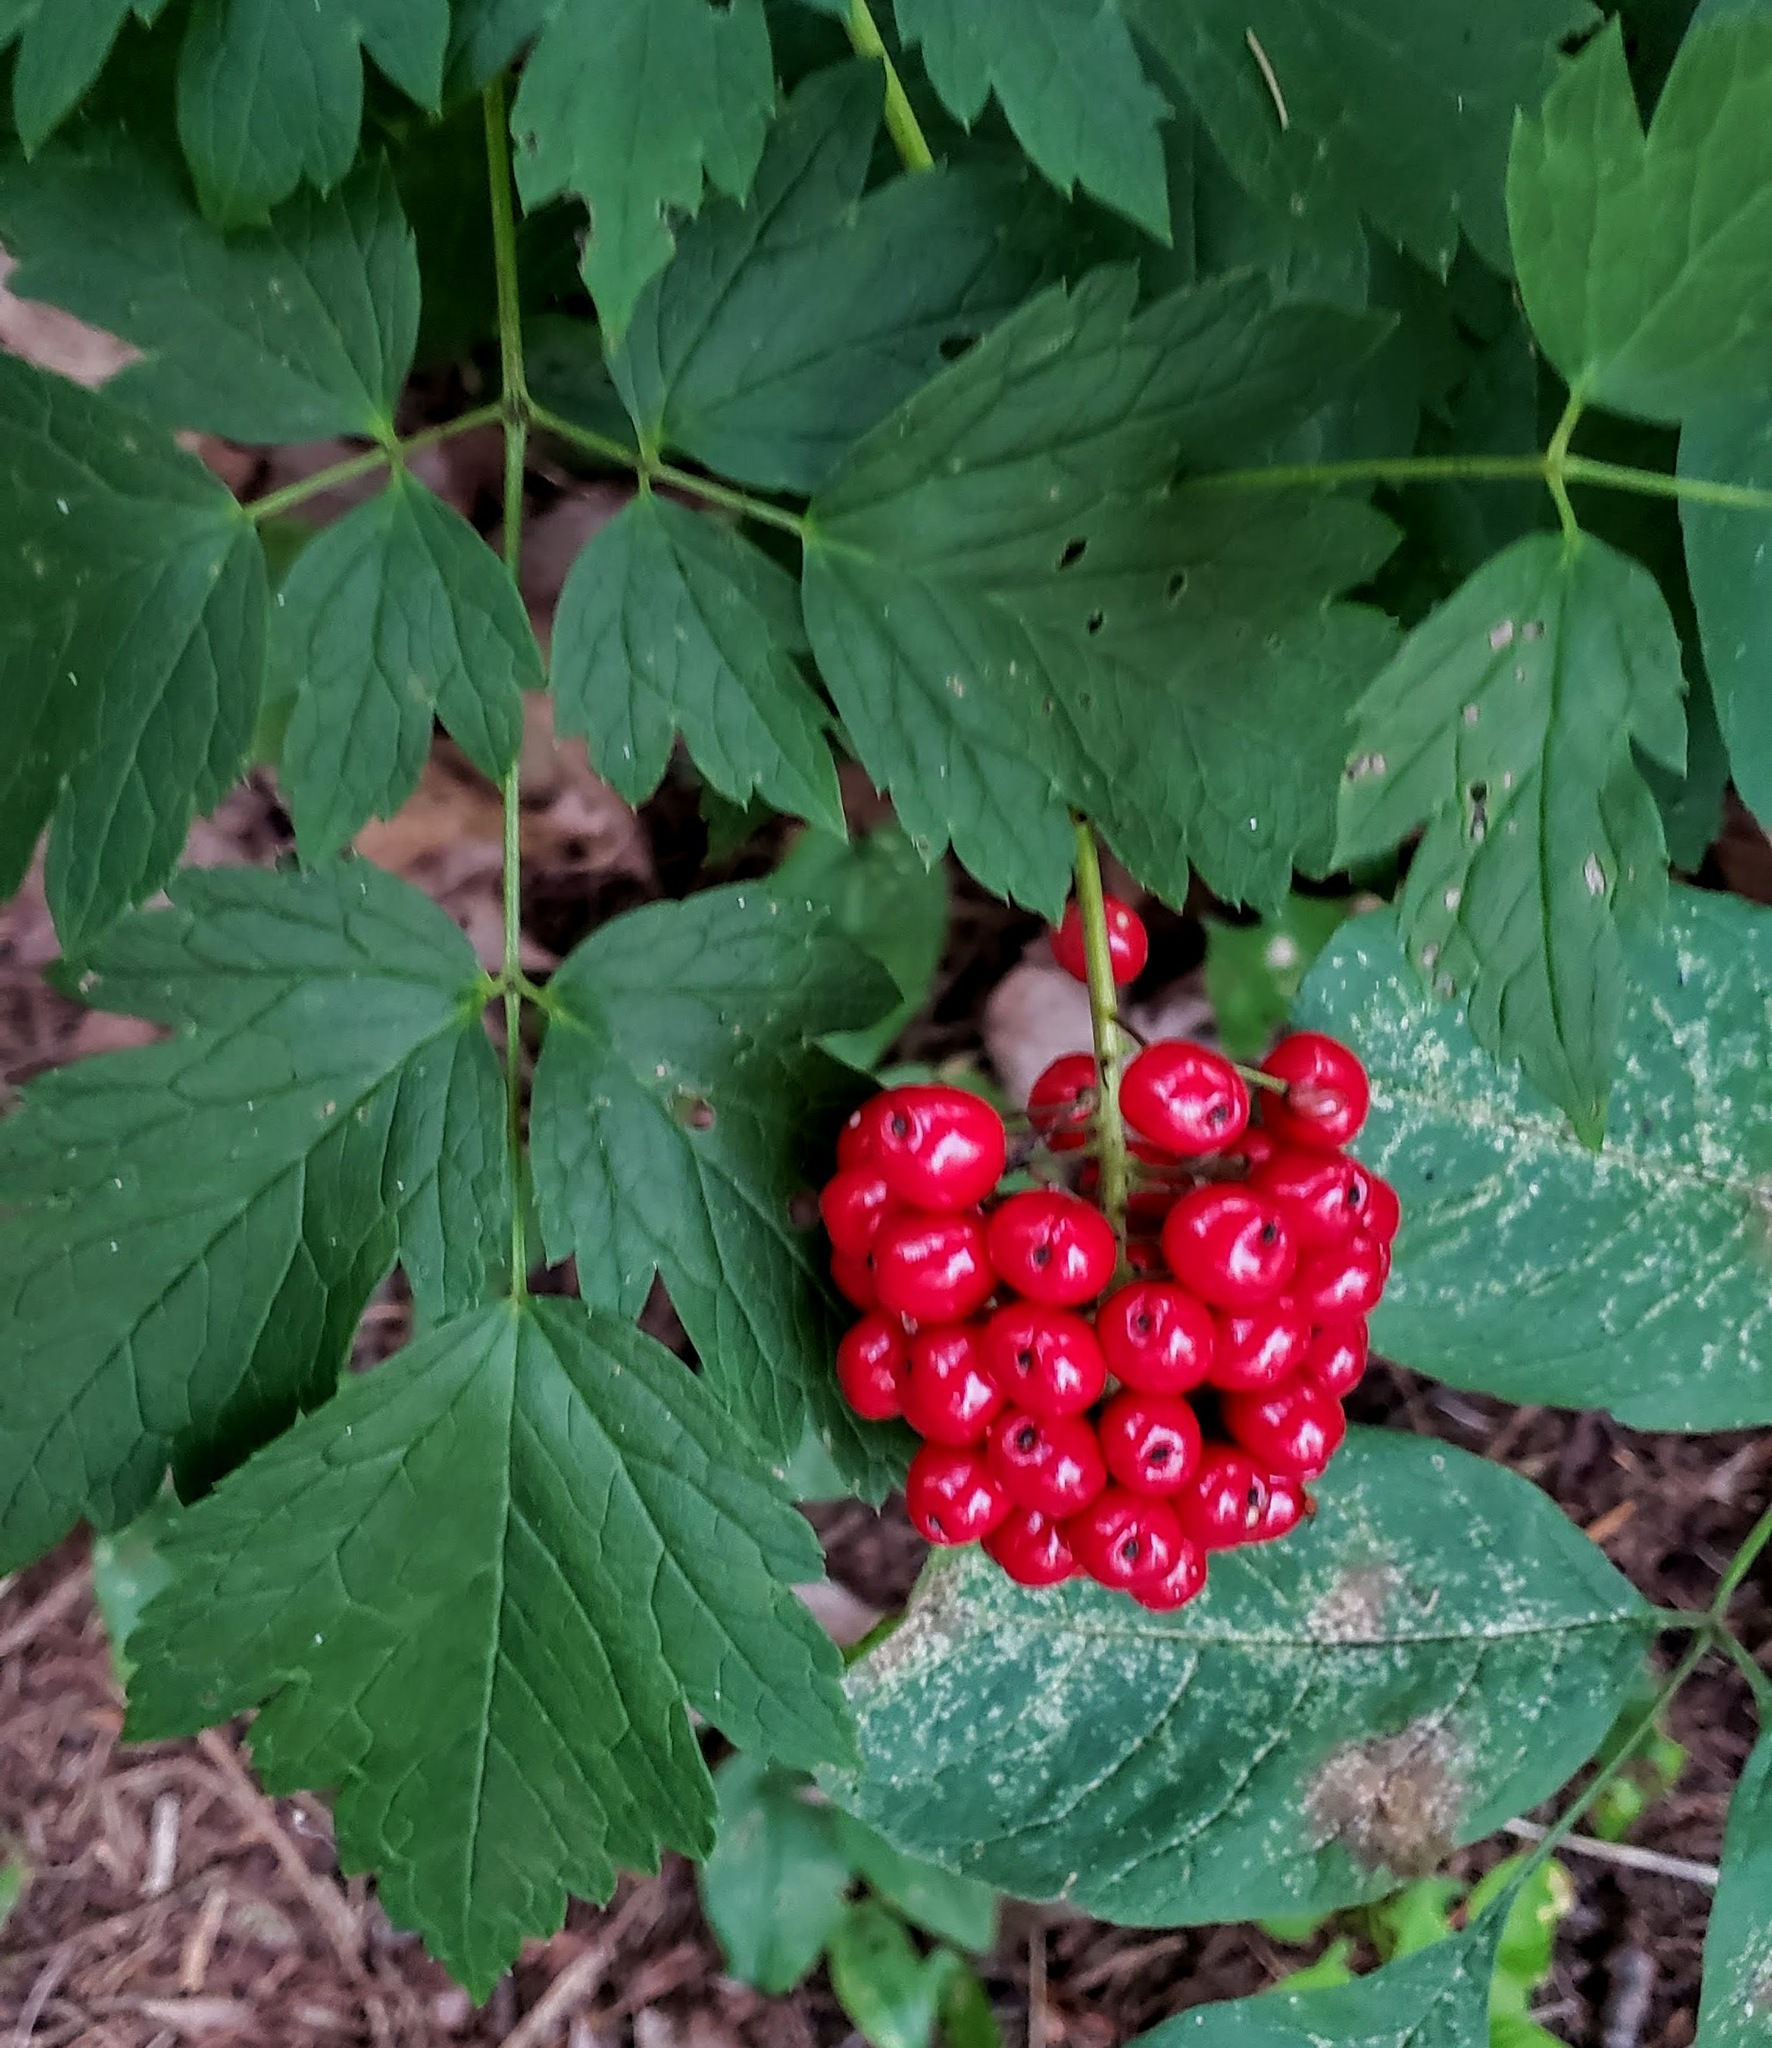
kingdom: Plantae
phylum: Tracheophyta
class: Magnoliopsida
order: Ranunculales
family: Ranunculaceae
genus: Actaea
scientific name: Actaea rubra
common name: Red baneberry
